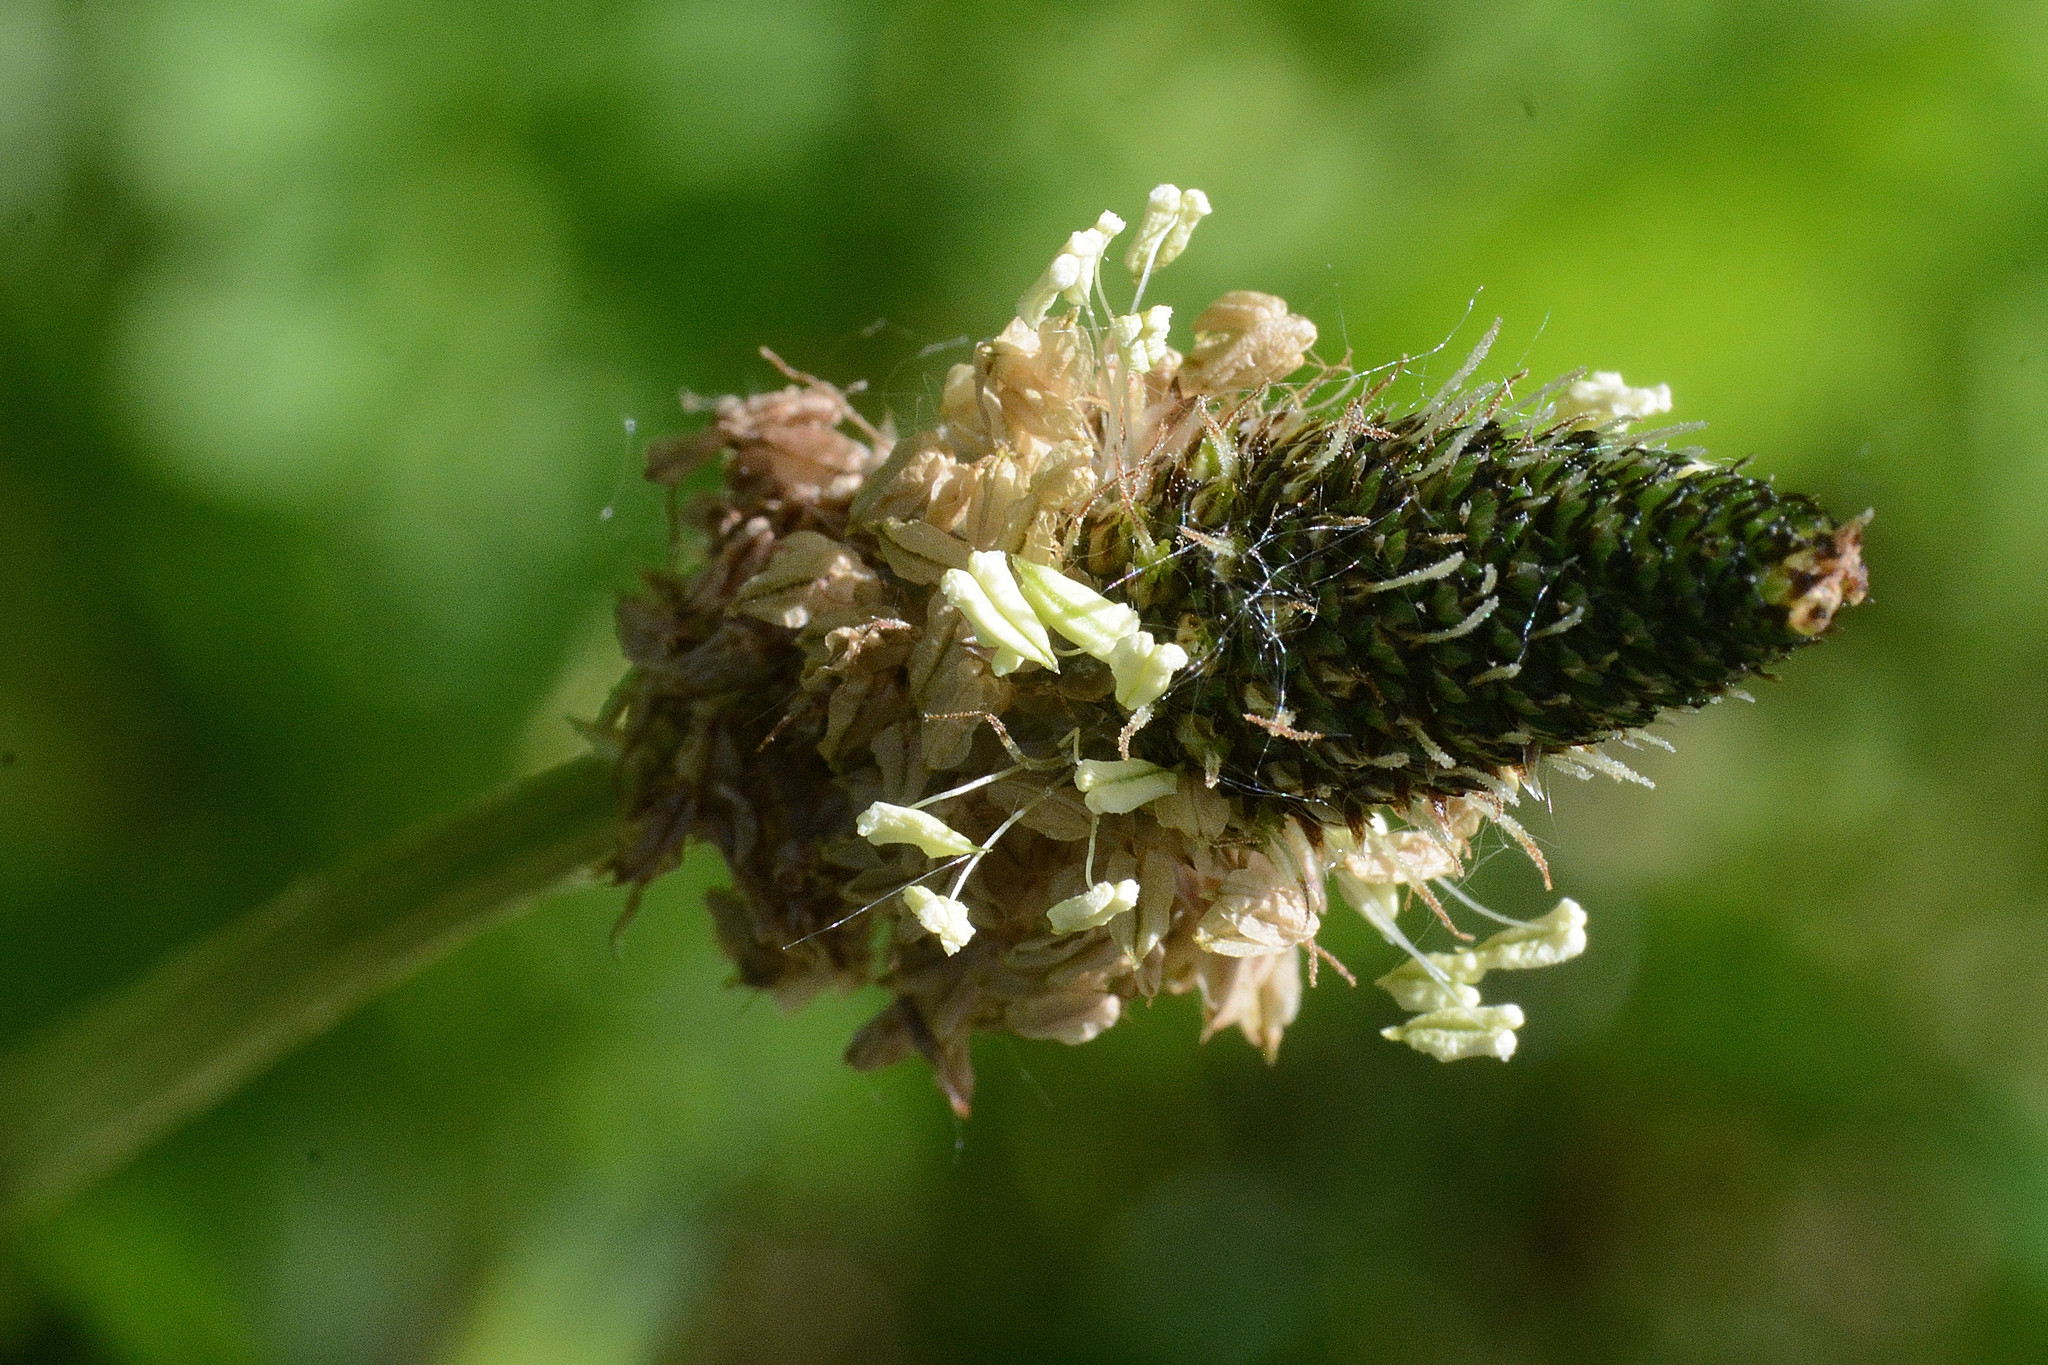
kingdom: Plantae
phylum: Tracheophyta
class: Magnoliopsida
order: Lamiales
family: Plantaginaceae
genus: Plantago
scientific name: Plantago lanceolata
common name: Ribwort plantain
